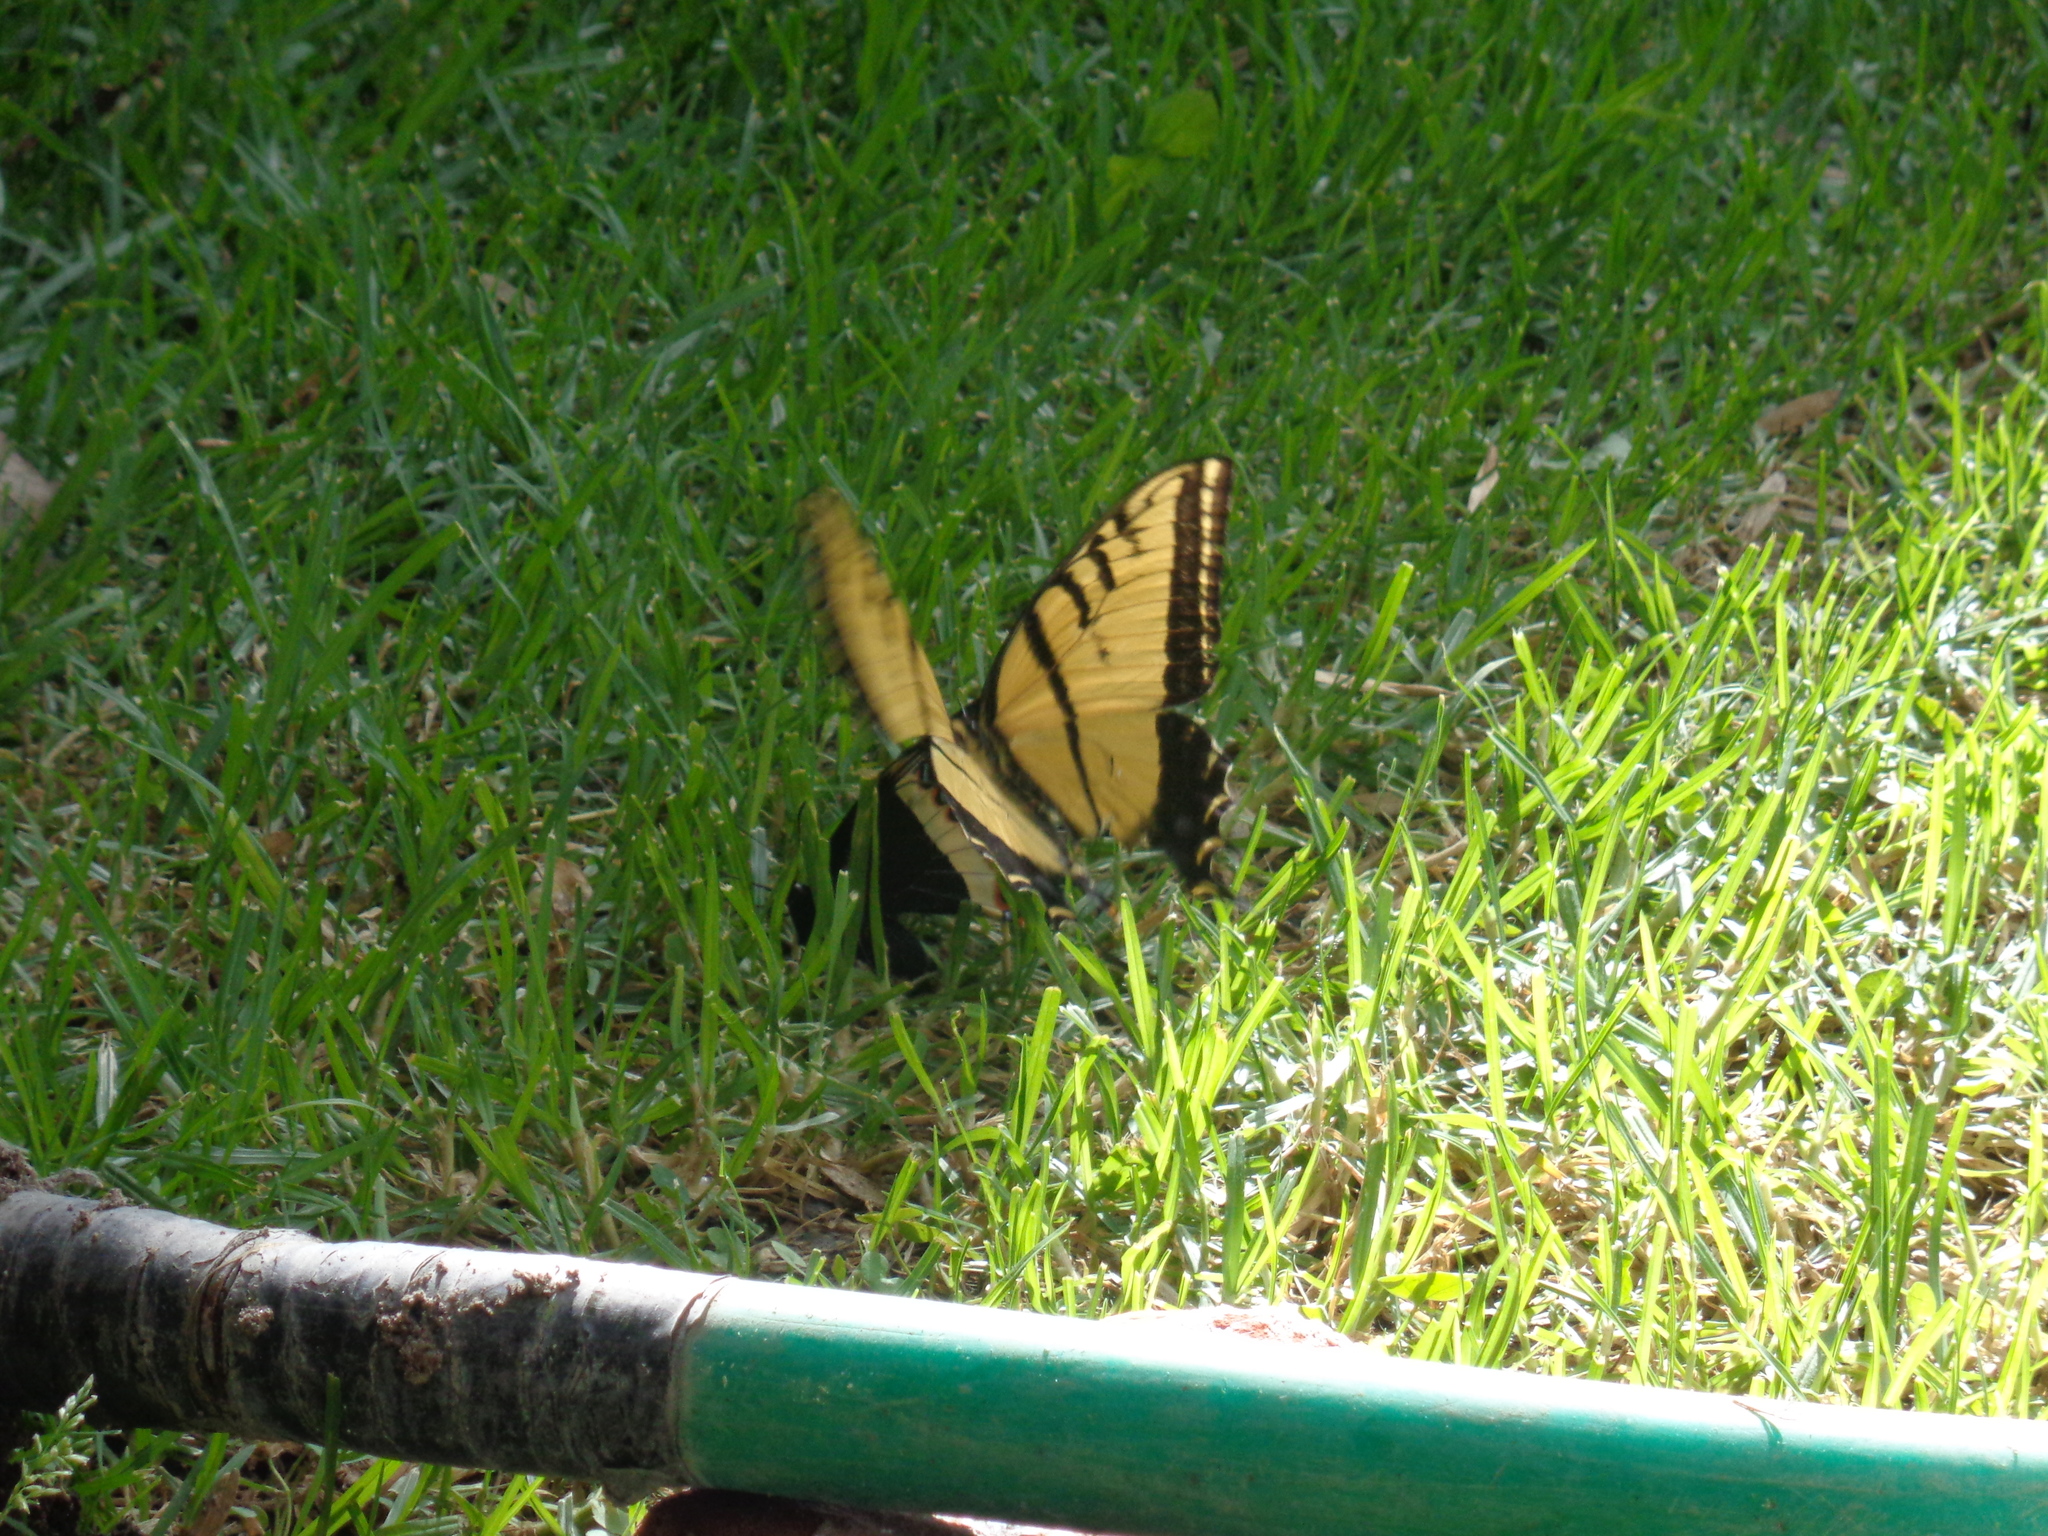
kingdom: Animalia
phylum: Arthropoda
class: Insecta
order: Lepidoptera
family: Papilionidae
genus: Papilio
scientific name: Papilio multicaudata
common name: Two-tailed tiger swallowtail
